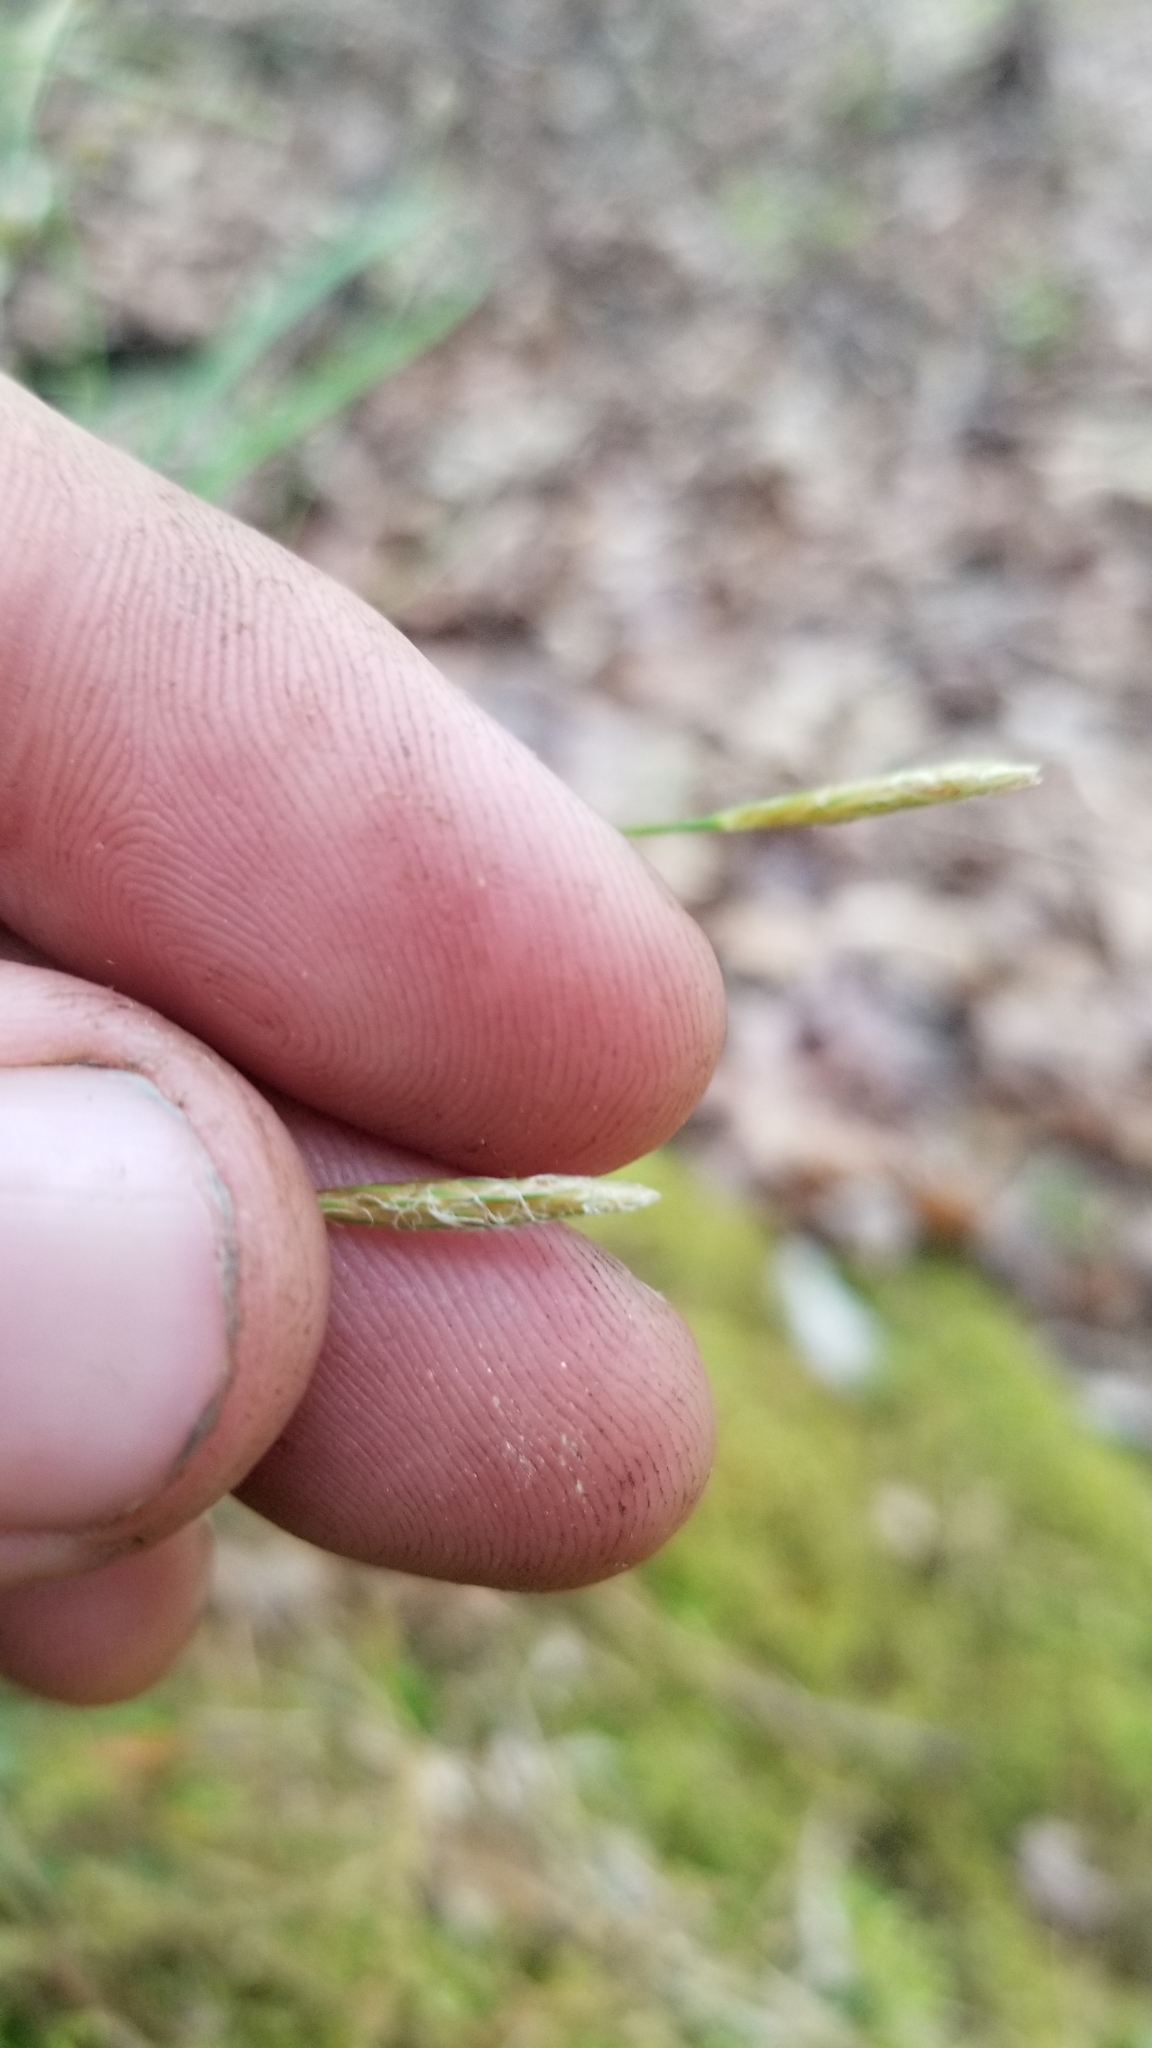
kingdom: Plantae
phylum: Tracheophyta
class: Liliopsida
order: Poales
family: Cyperaceae
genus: Carex
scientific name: Carex digitalis
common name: Slender wood sedge
